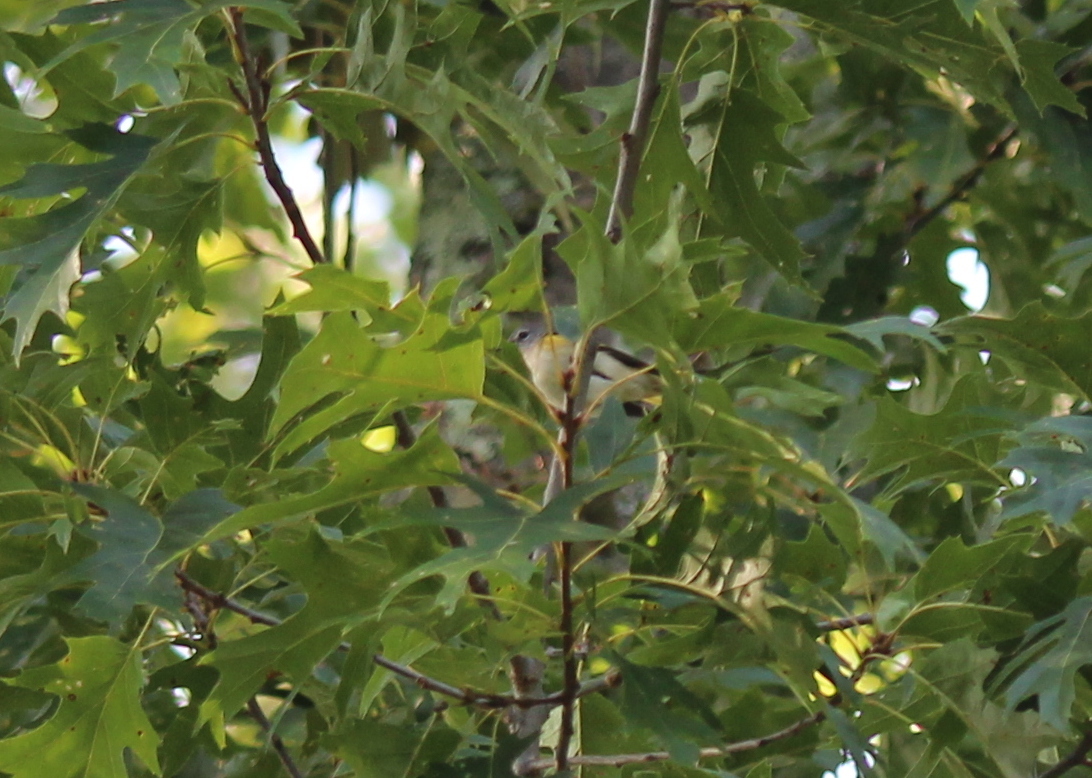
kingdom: Animalia
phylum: Chordata
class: Aves
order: Passeriformes
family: Parulidae
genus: Setophaga
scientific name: Setophaga ruticilla
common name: American redstart
